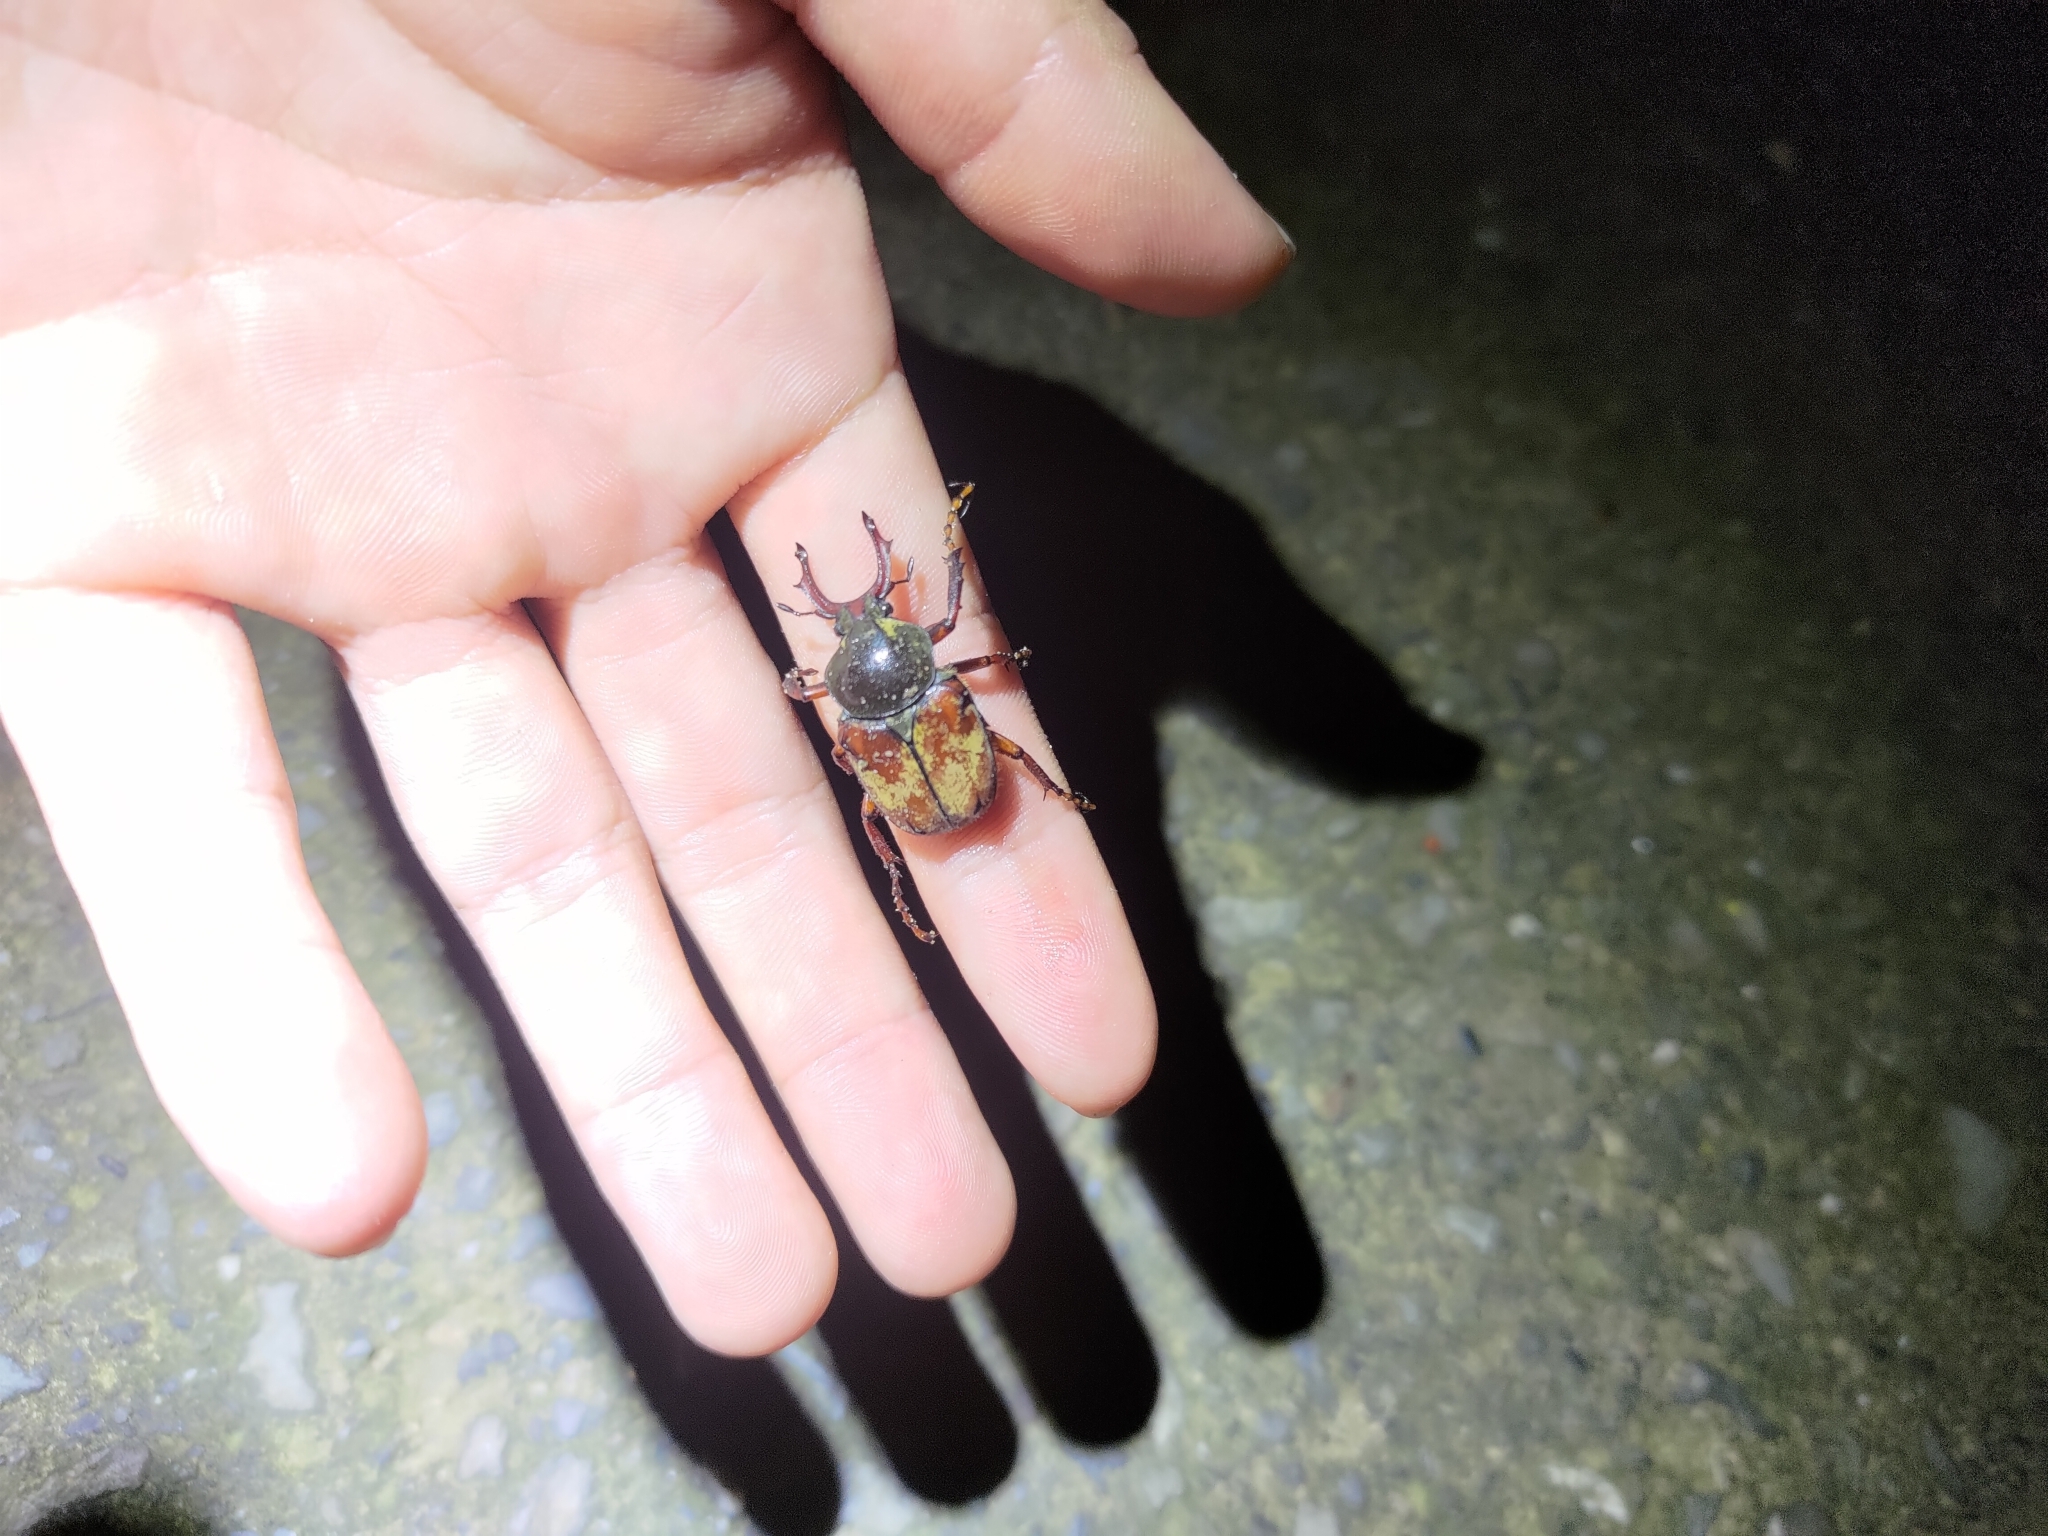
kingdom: Animalia
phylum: Arthropoda
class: Insecta
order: Coleoptera
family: Scarabaeidae
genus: Dicronocephalus
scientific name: Dicronocephalus bourgoini
